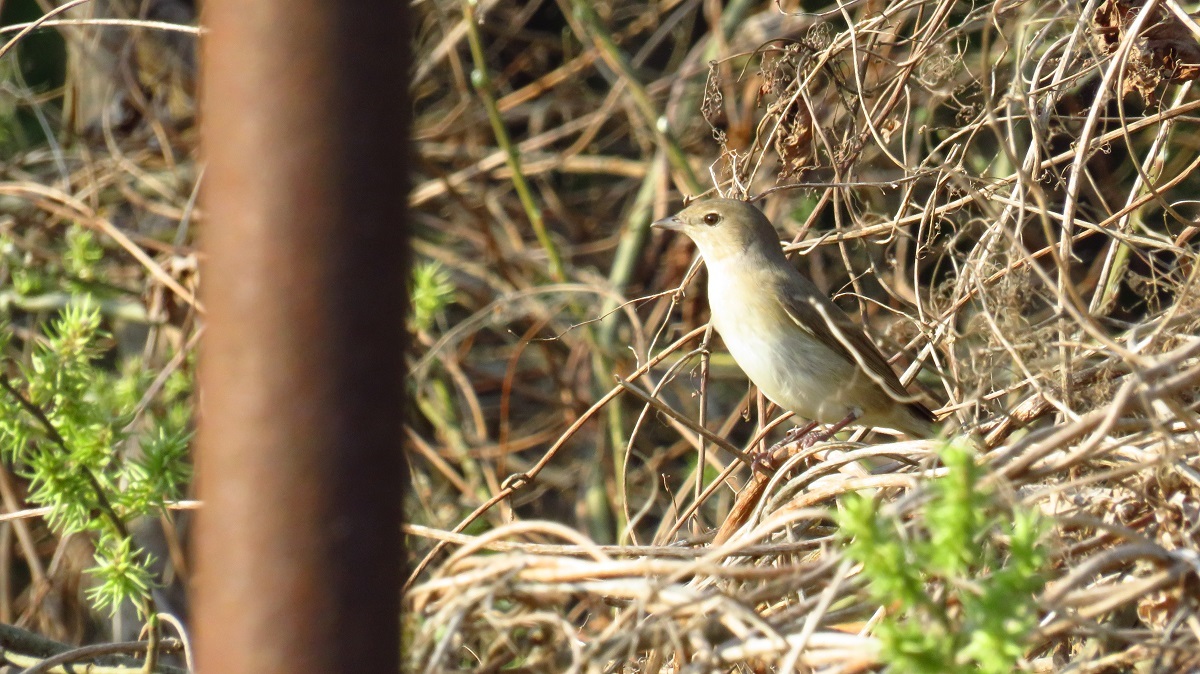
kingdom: Animalia
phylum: Chordata
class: Aves
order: Passeriformes
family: Sylviidae
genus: Sylvia
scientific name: Sylvia borin
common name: Garden warbler
